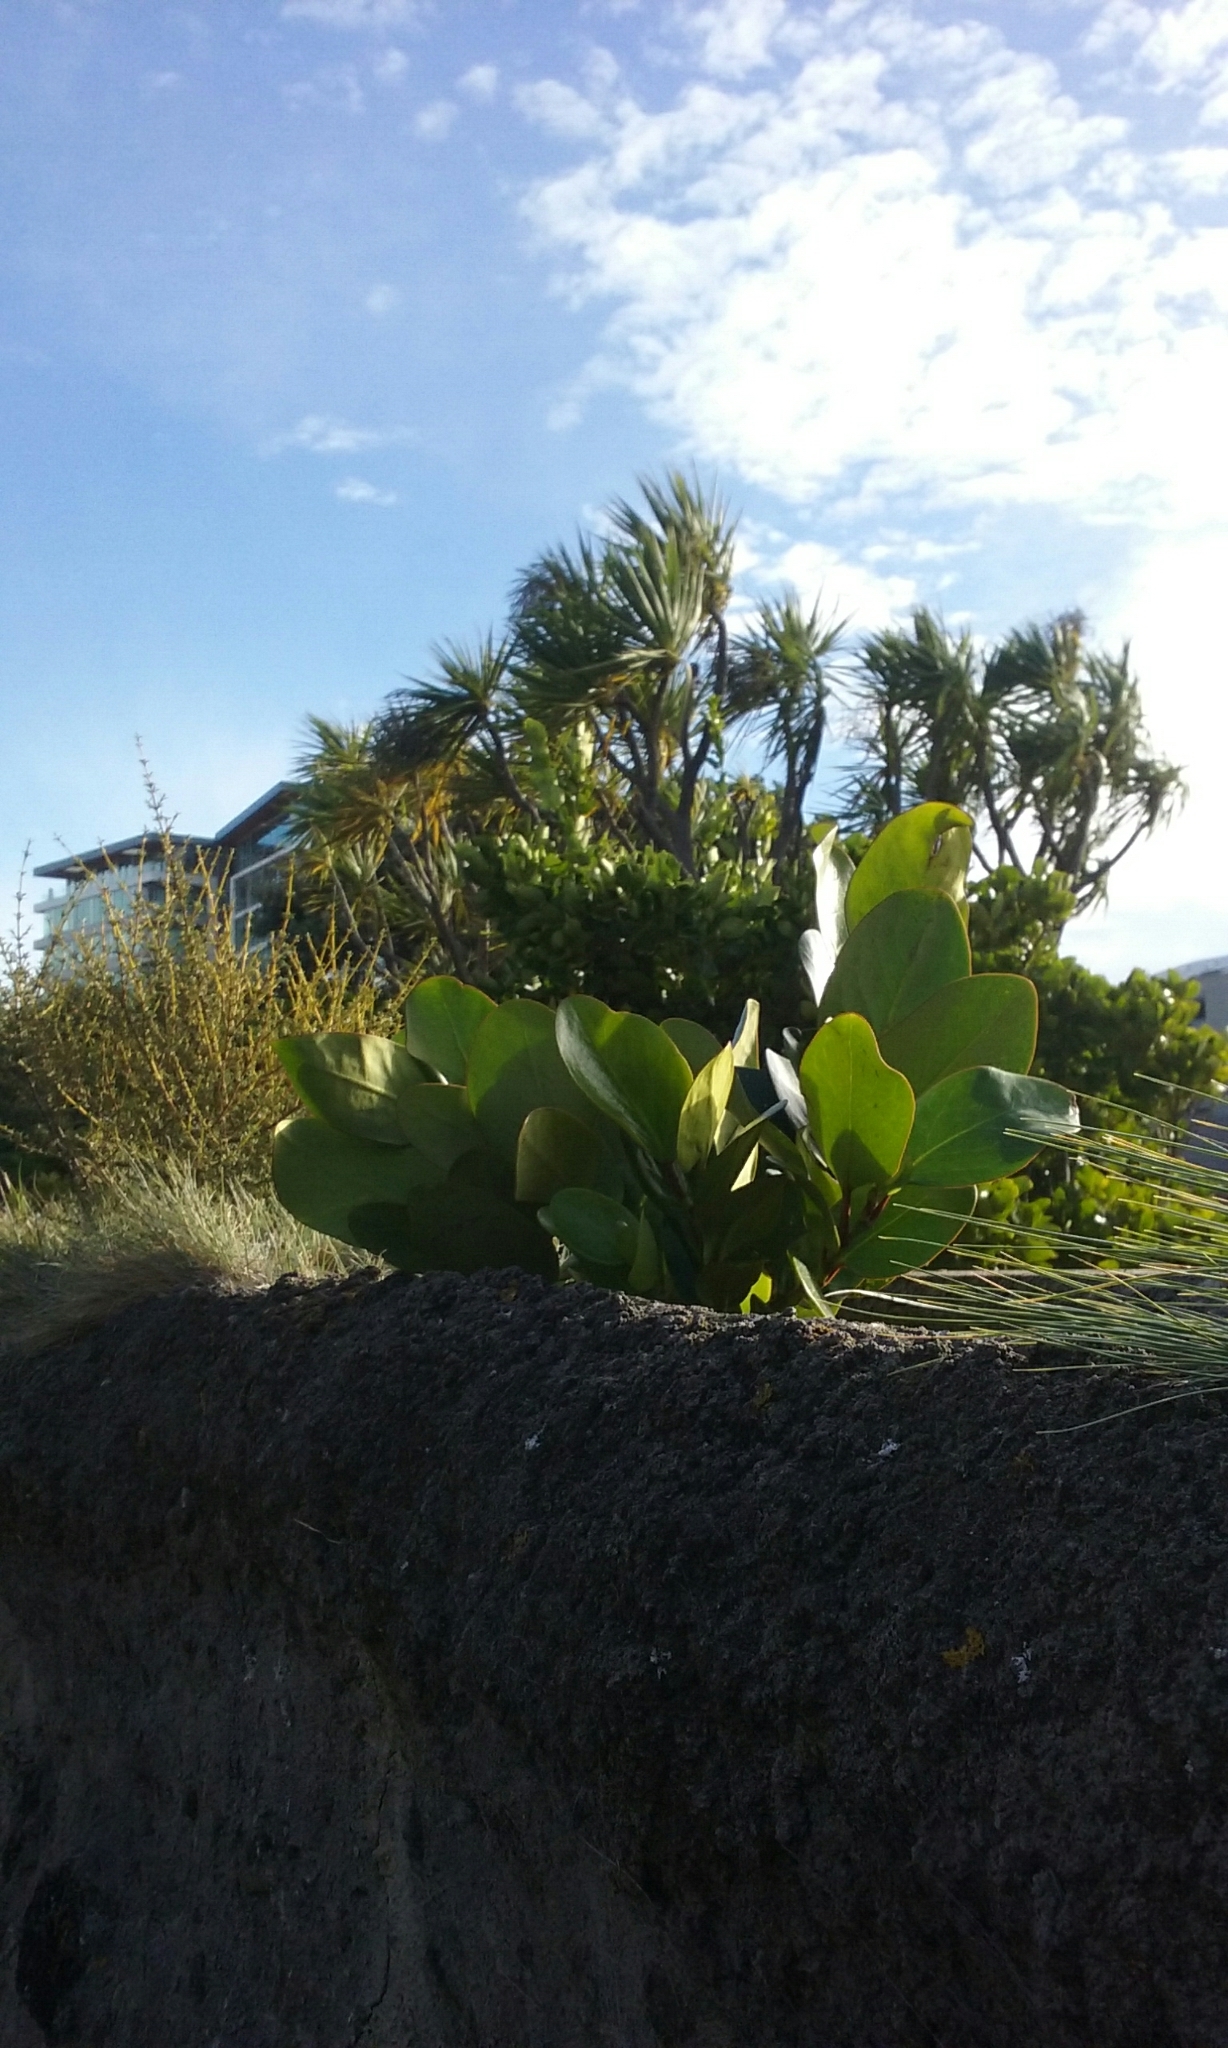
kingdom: Plantae
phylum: Tracheophyta
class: Magnoliopsida
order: Apiales
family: Griseliniaceae
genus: Griselinia
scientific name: Griselinia lucida
